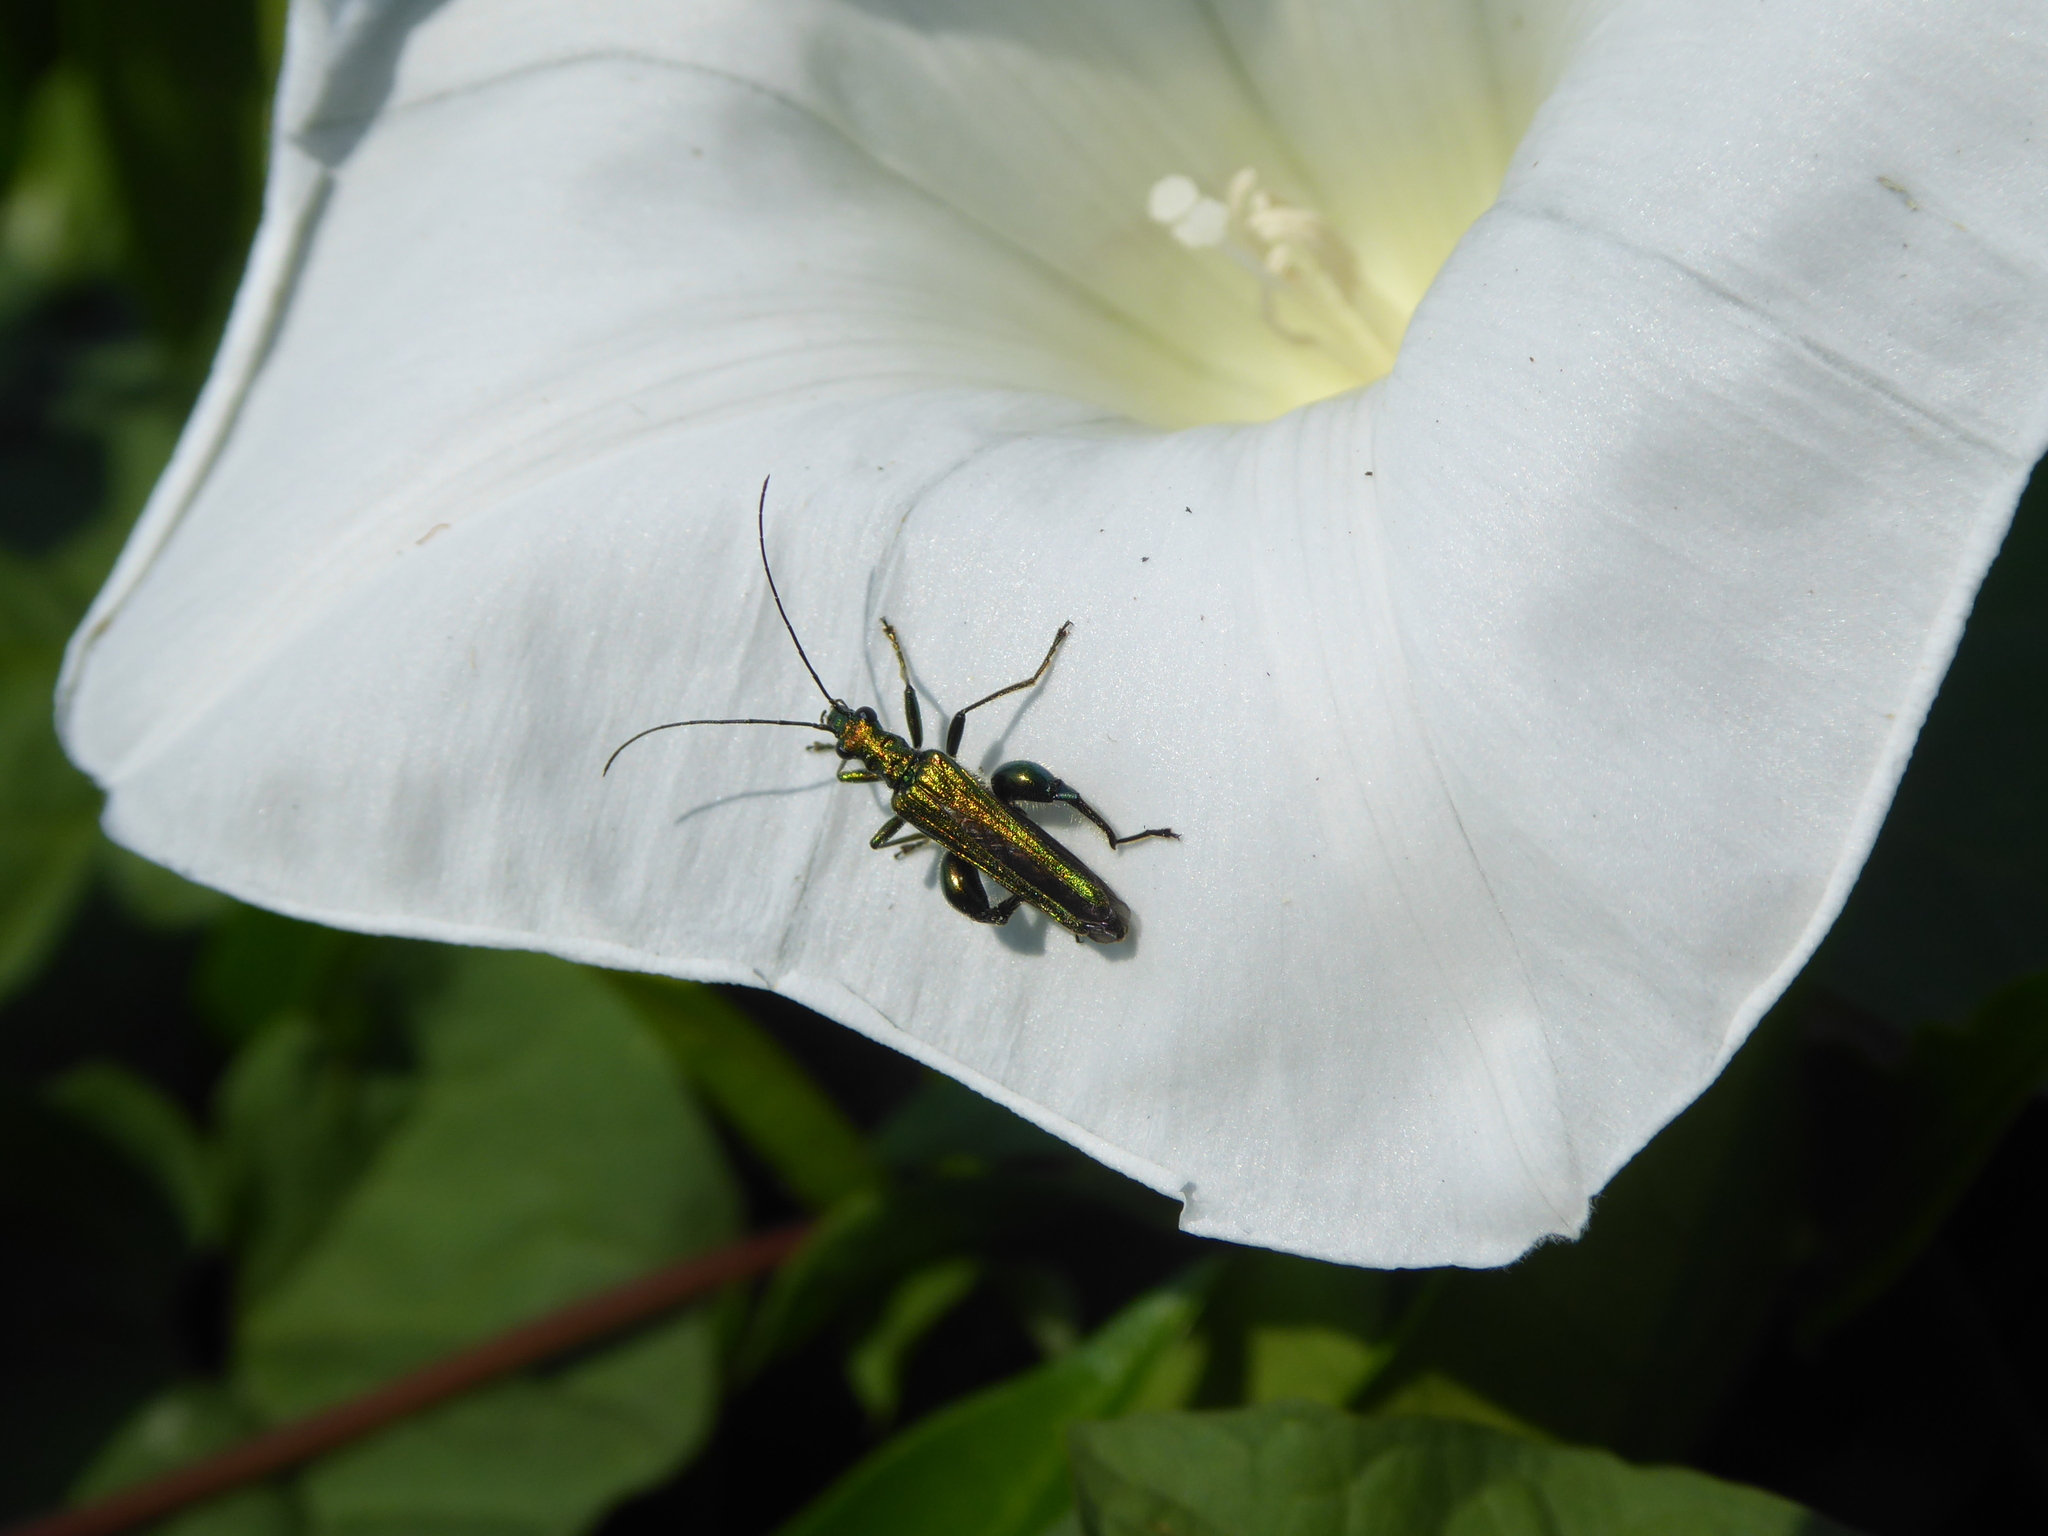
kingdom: Animalia
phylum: Arthropoda
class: Insecta
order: Coleoptera
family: Oedemeridae
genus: Oedemera
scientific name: Oedemera nobilis
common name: Swollen-thighed beetle
